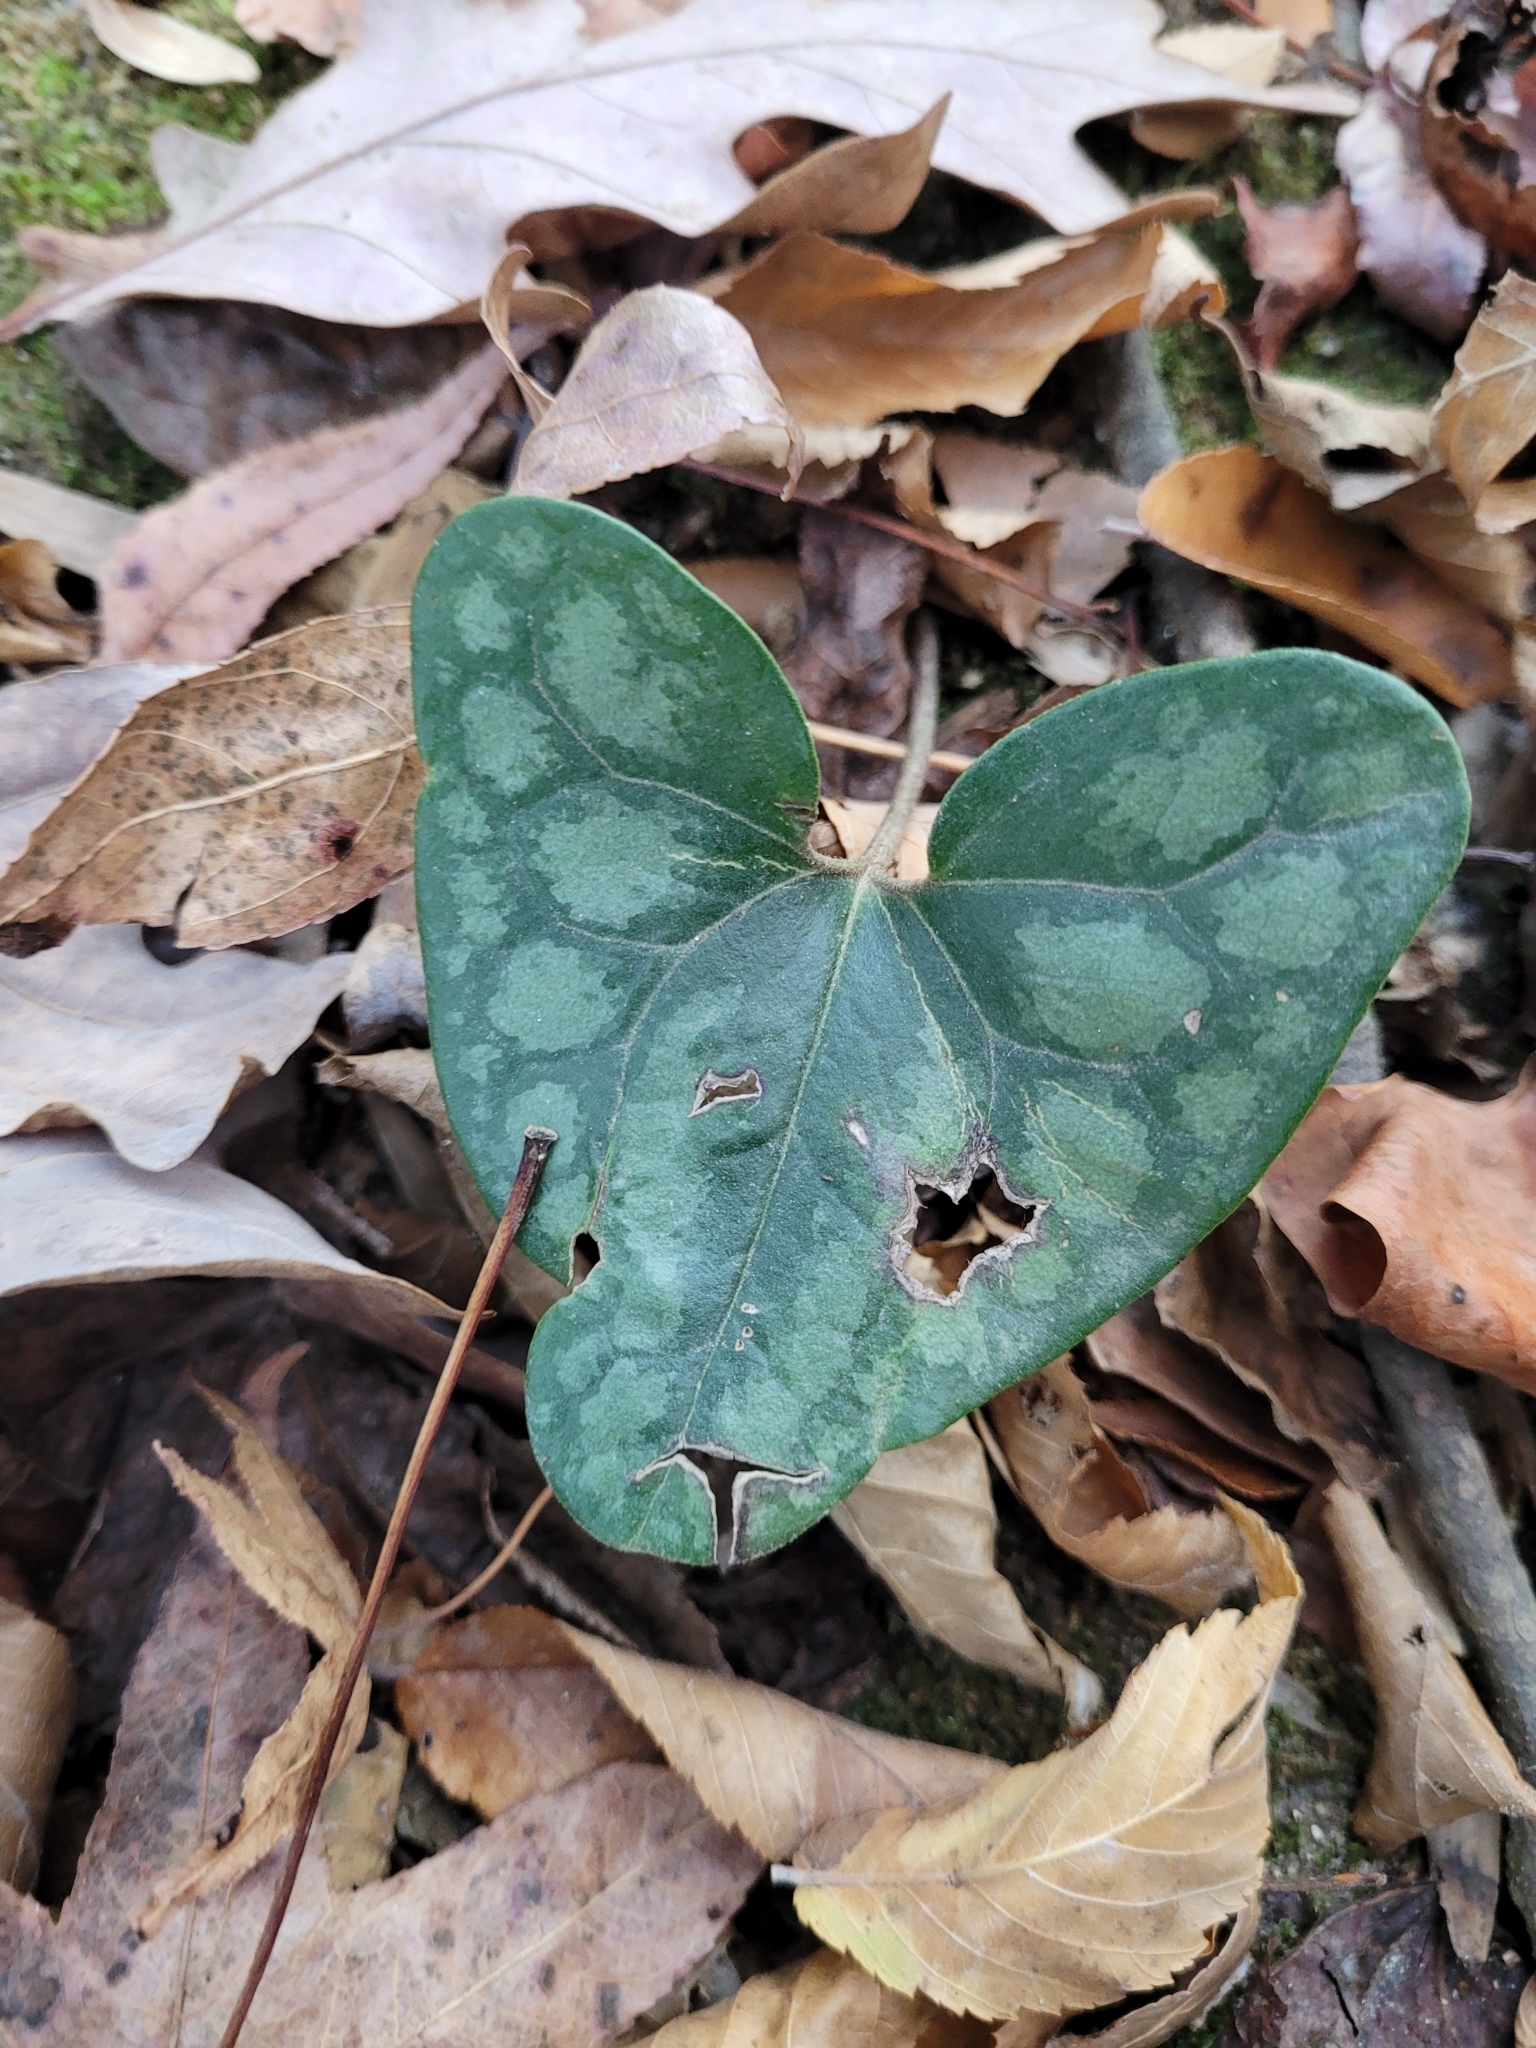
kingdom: Plantae
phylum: Tracheophyta
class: Magnoliopsida
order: Piperales
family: Aristolochiaceae
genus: Hexastylis
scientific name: Hexastylis arifolia
